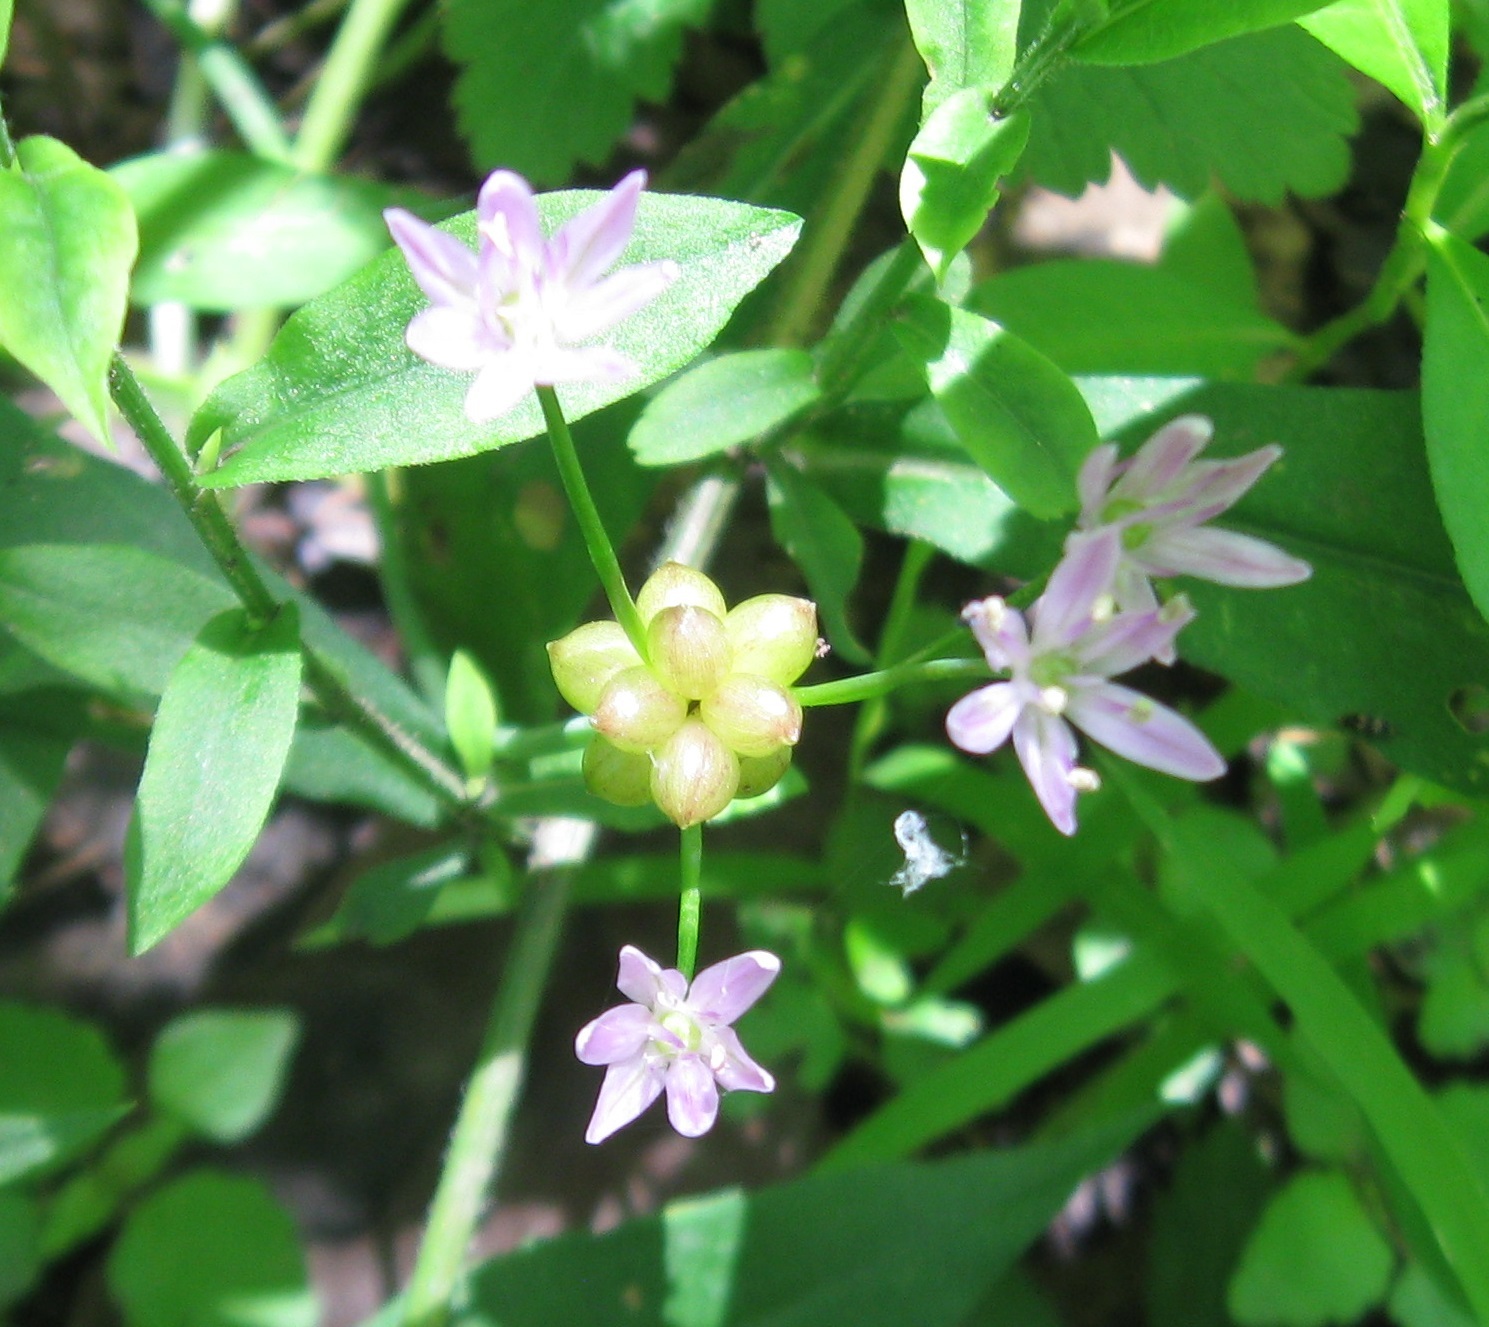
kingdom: Plantae
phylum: Tracheophyta
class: Liliopsida
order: Asparagales
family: Amaryllidaceae
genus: Allium
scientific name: Allium canadense
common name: Meadow garlic
